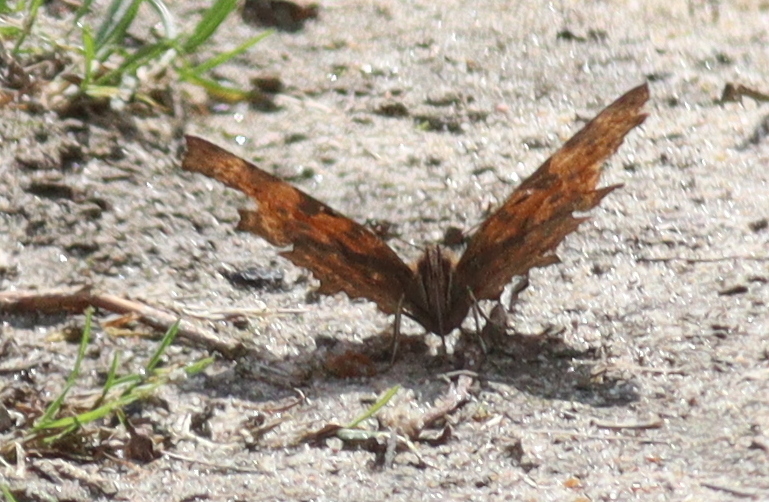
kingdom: Animalia
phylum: Arthropoda
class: Insecta
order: Lepidoptera
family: Nymphalidae
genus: Polygonia
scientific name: Polygonia c-album
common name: Comma
